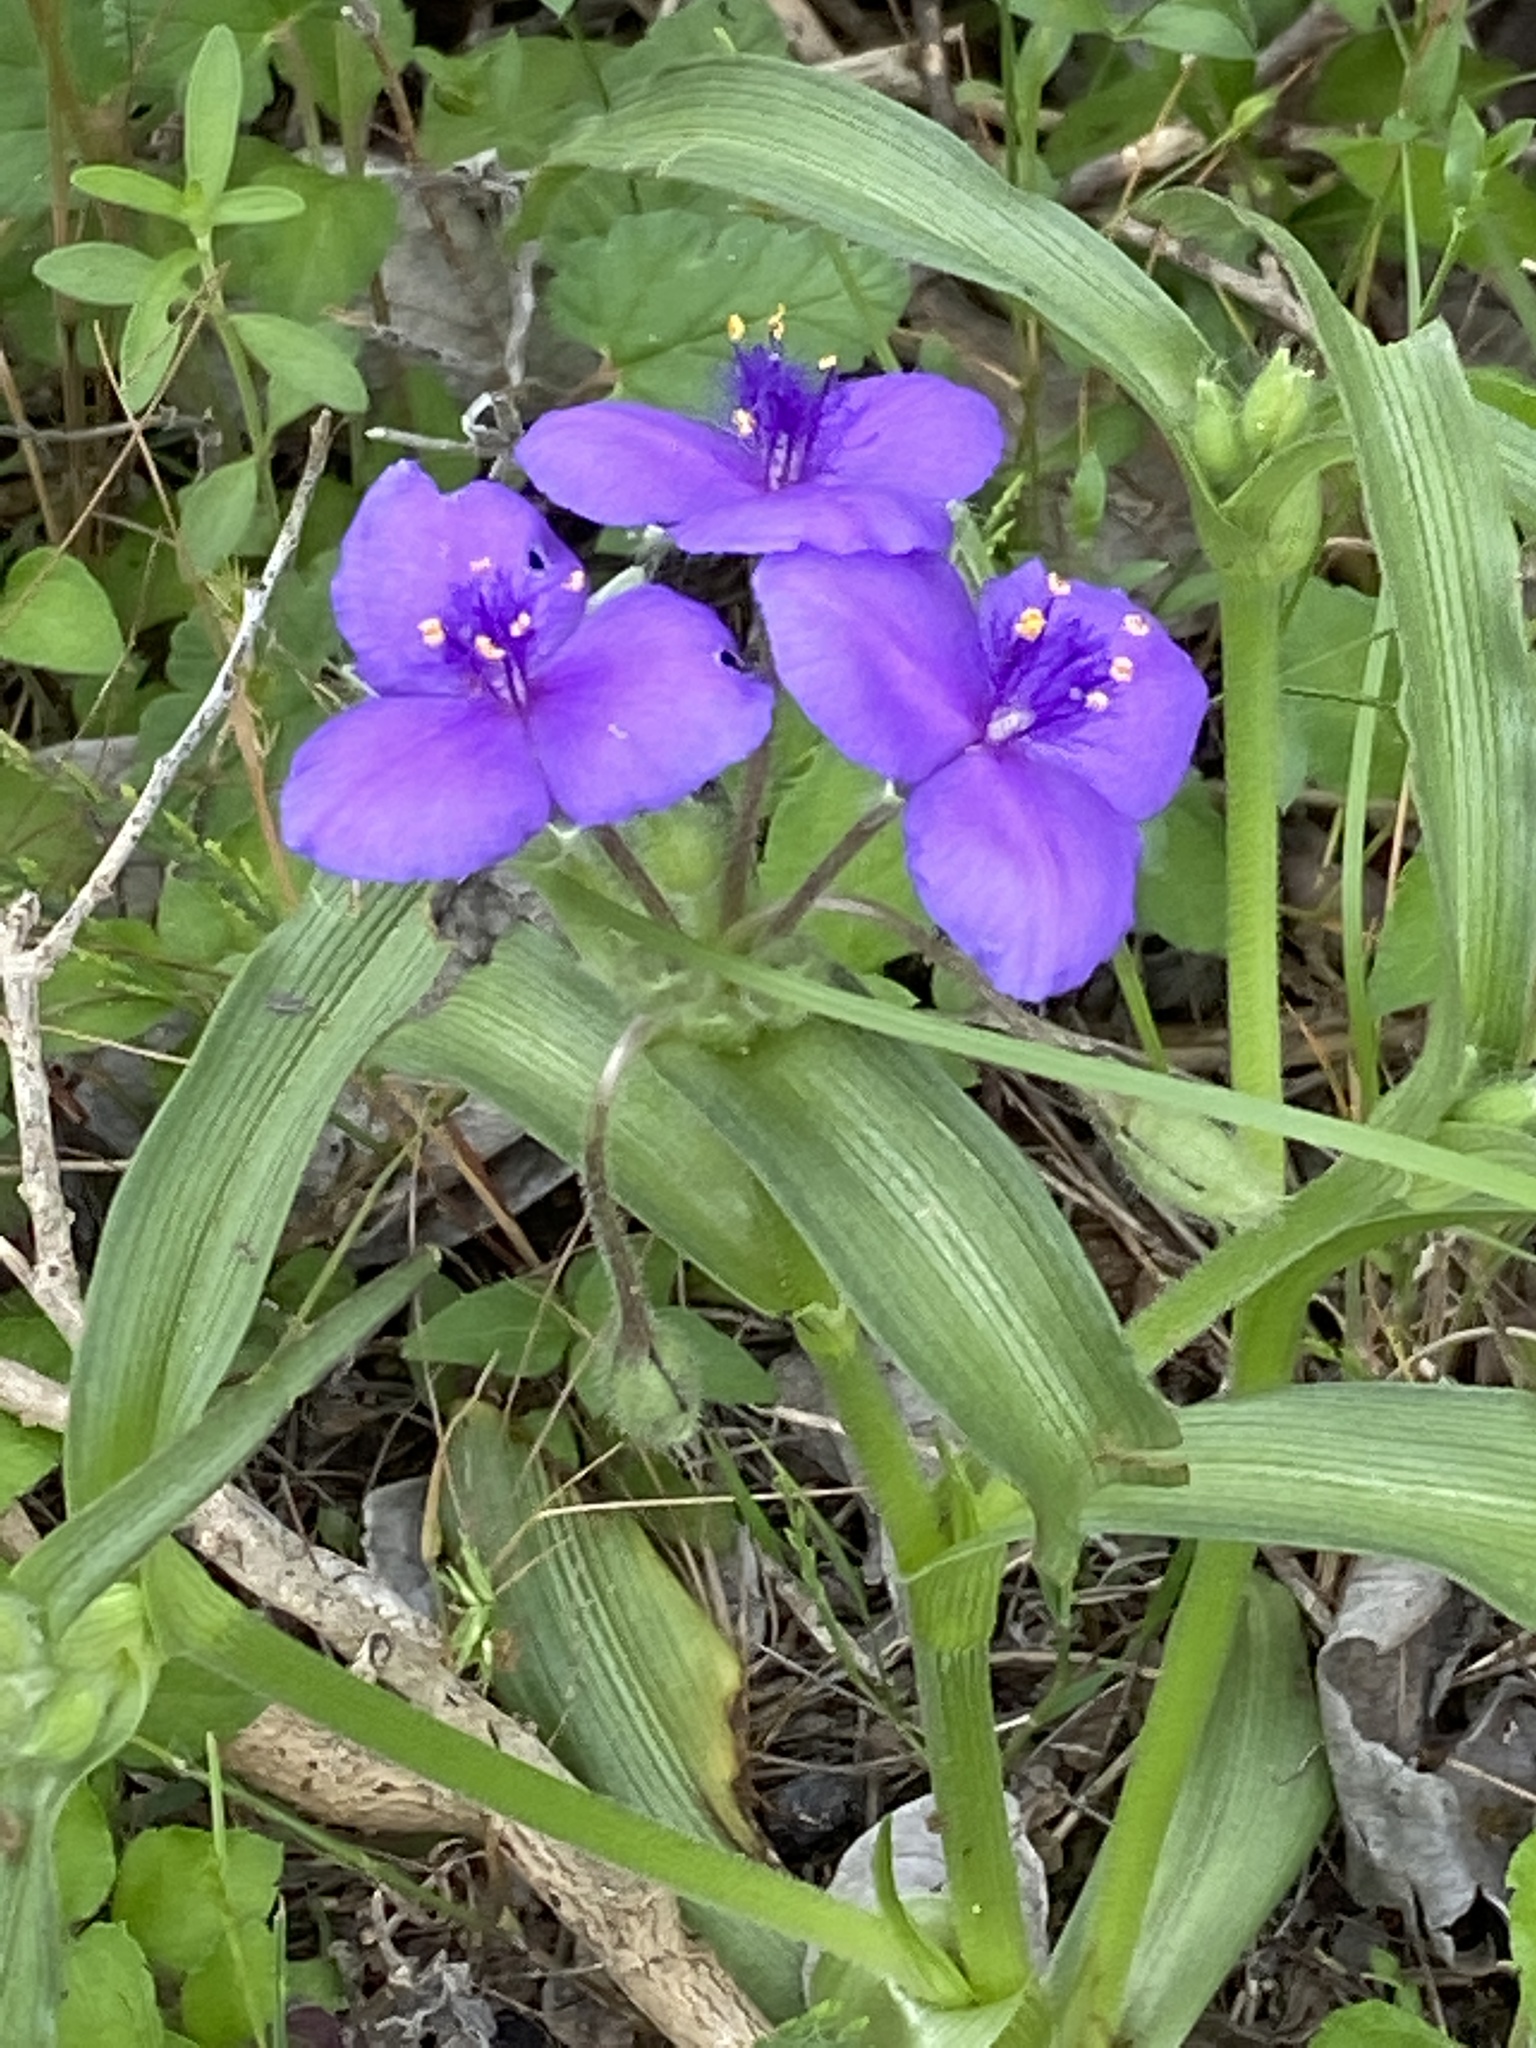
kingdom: Plantae
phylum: Tracheophyta
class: Liliopsida
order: Commelinales
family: Commelinaceae
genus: Tradescantia
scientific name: Tradescantia gigantea
